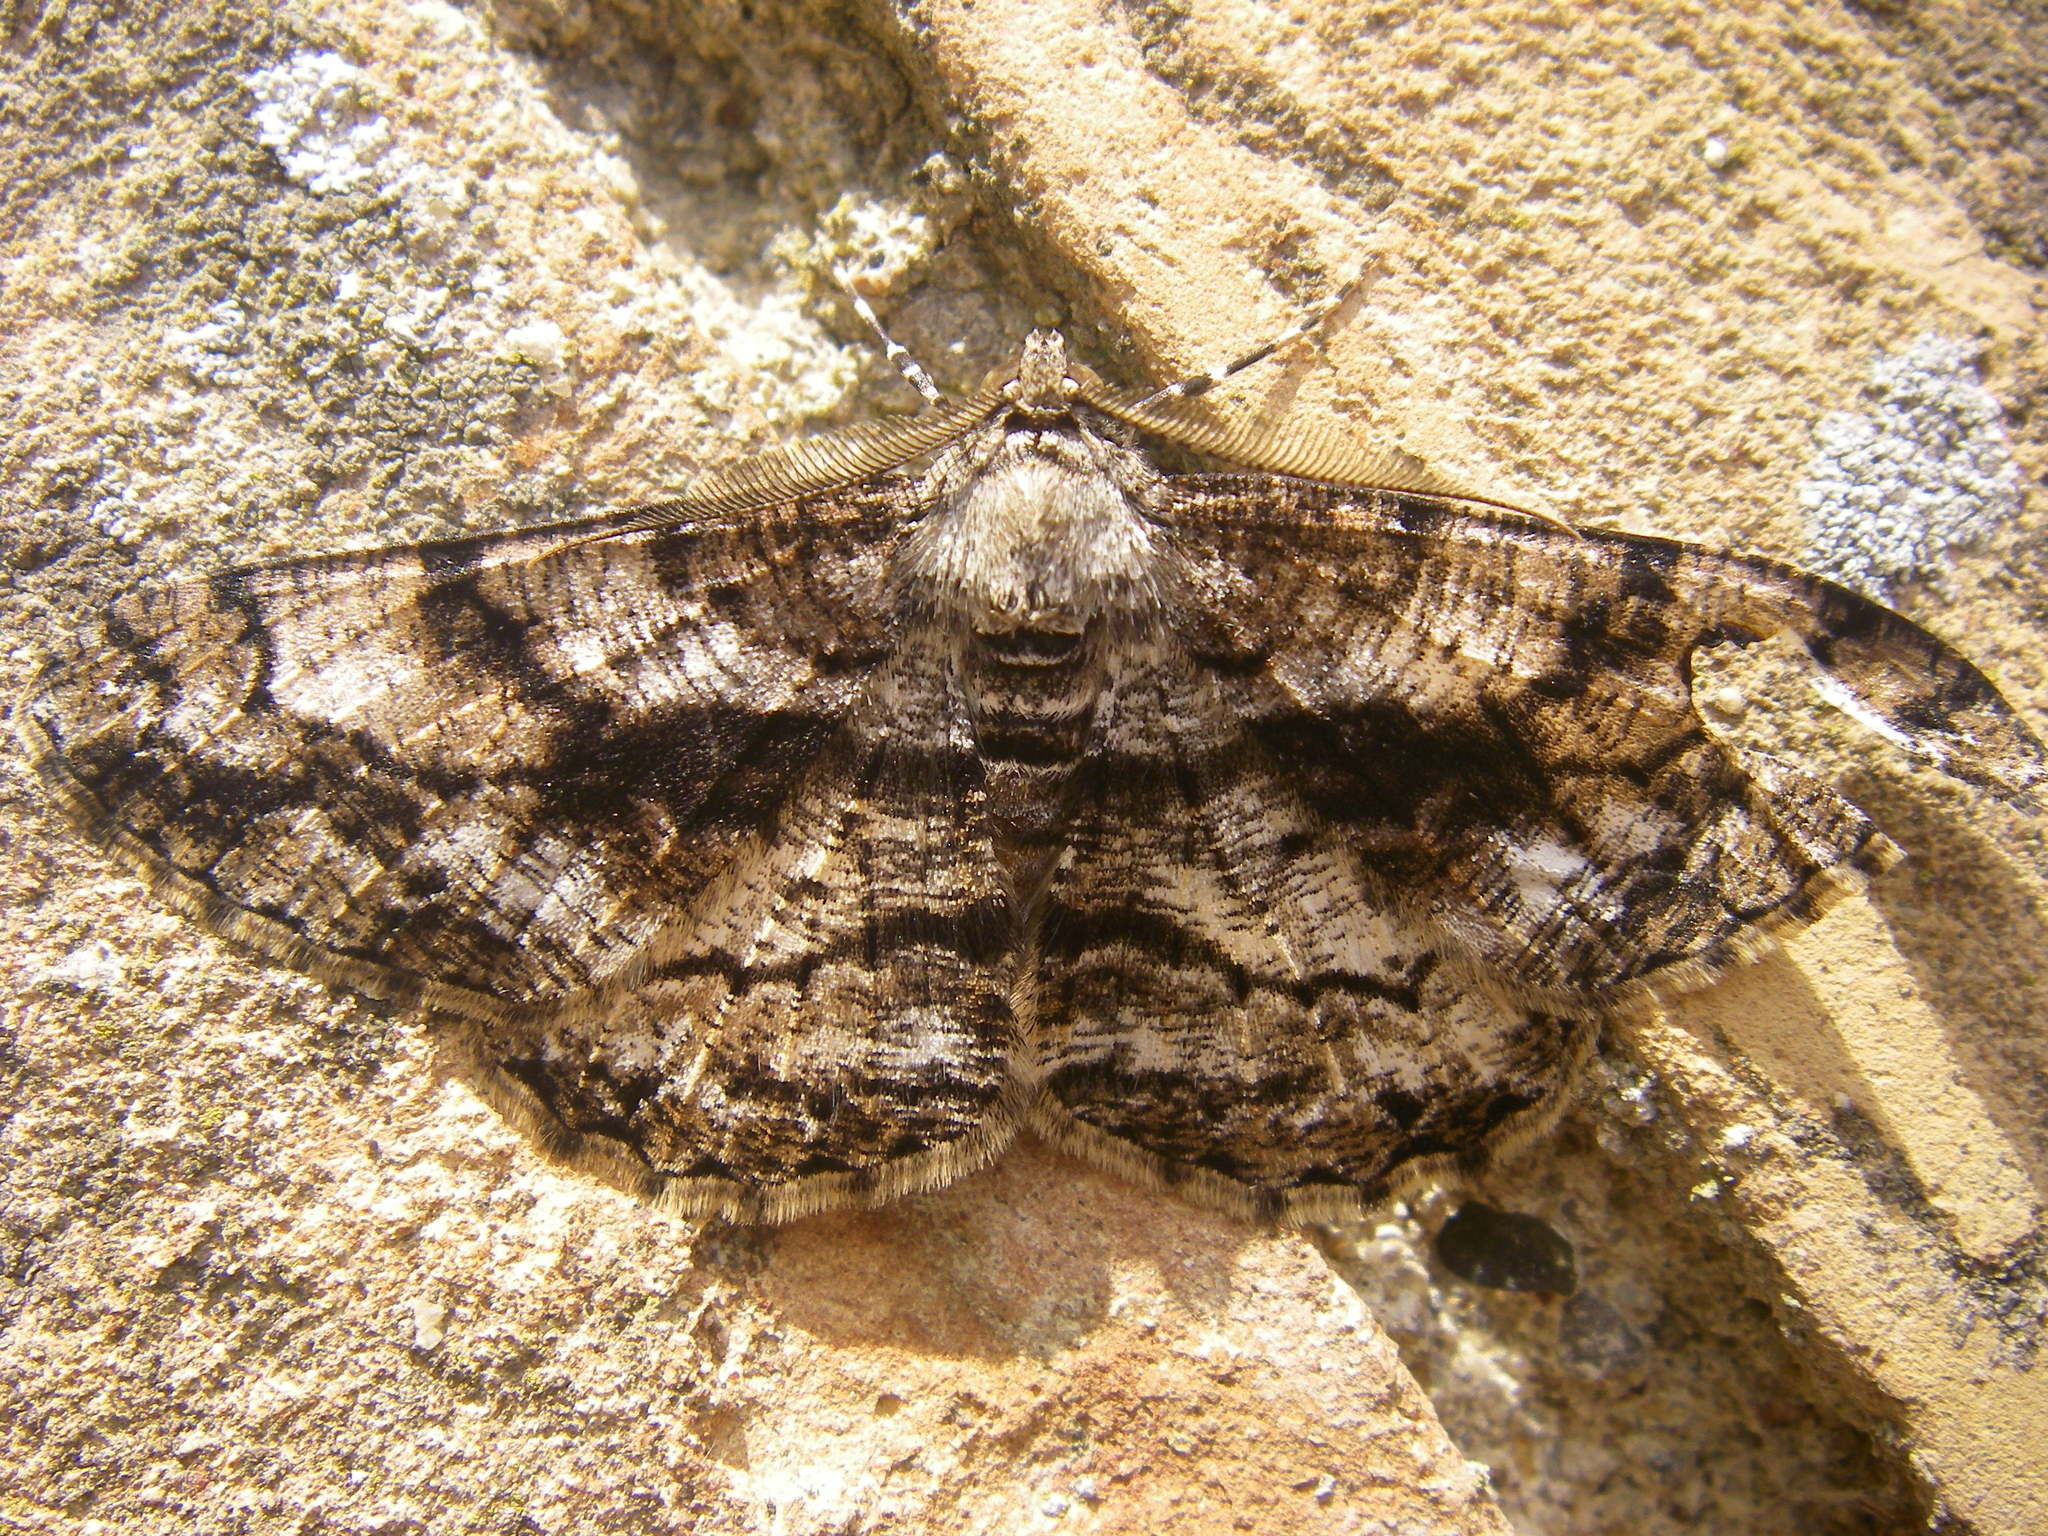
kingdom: Animalia
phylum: Arthropoda
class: Insecta
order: Lepidoptera
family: Geometridae
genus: Peribatodes
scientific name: Peribatodes umbraria
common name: Olive-tree beauty
